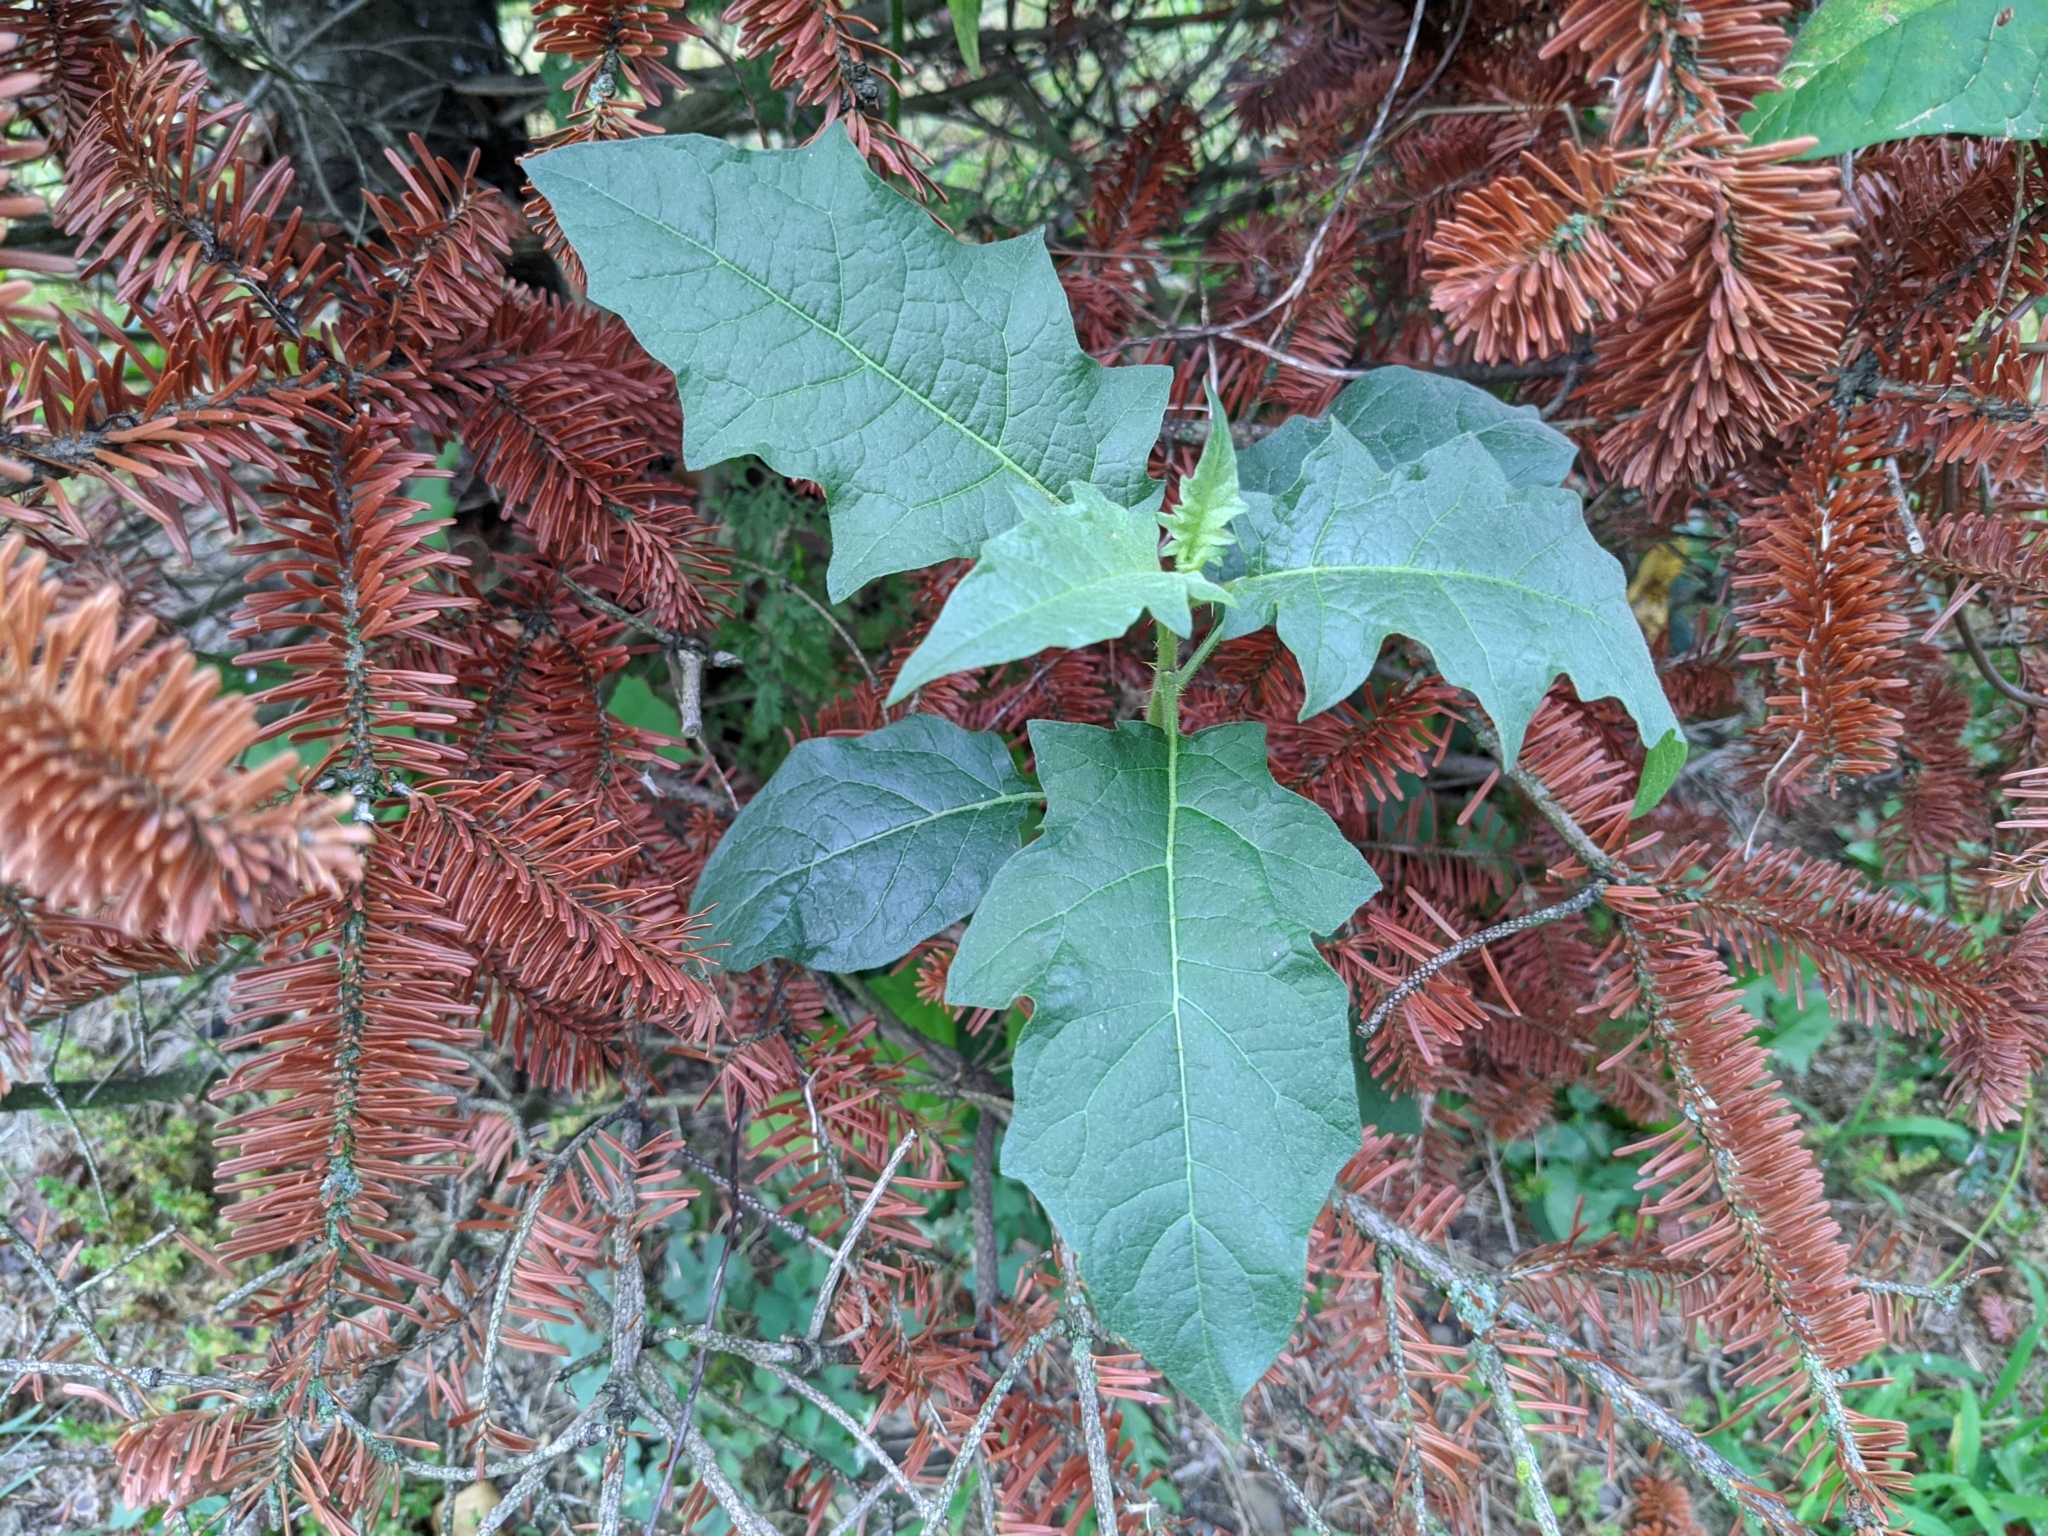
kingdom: Plantae
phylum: Tracheophyta
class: Magnoliopsida
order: Solanales
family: Solanaceae
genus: Solanum
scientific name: Solanum carolinense
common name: Horse-nettle
